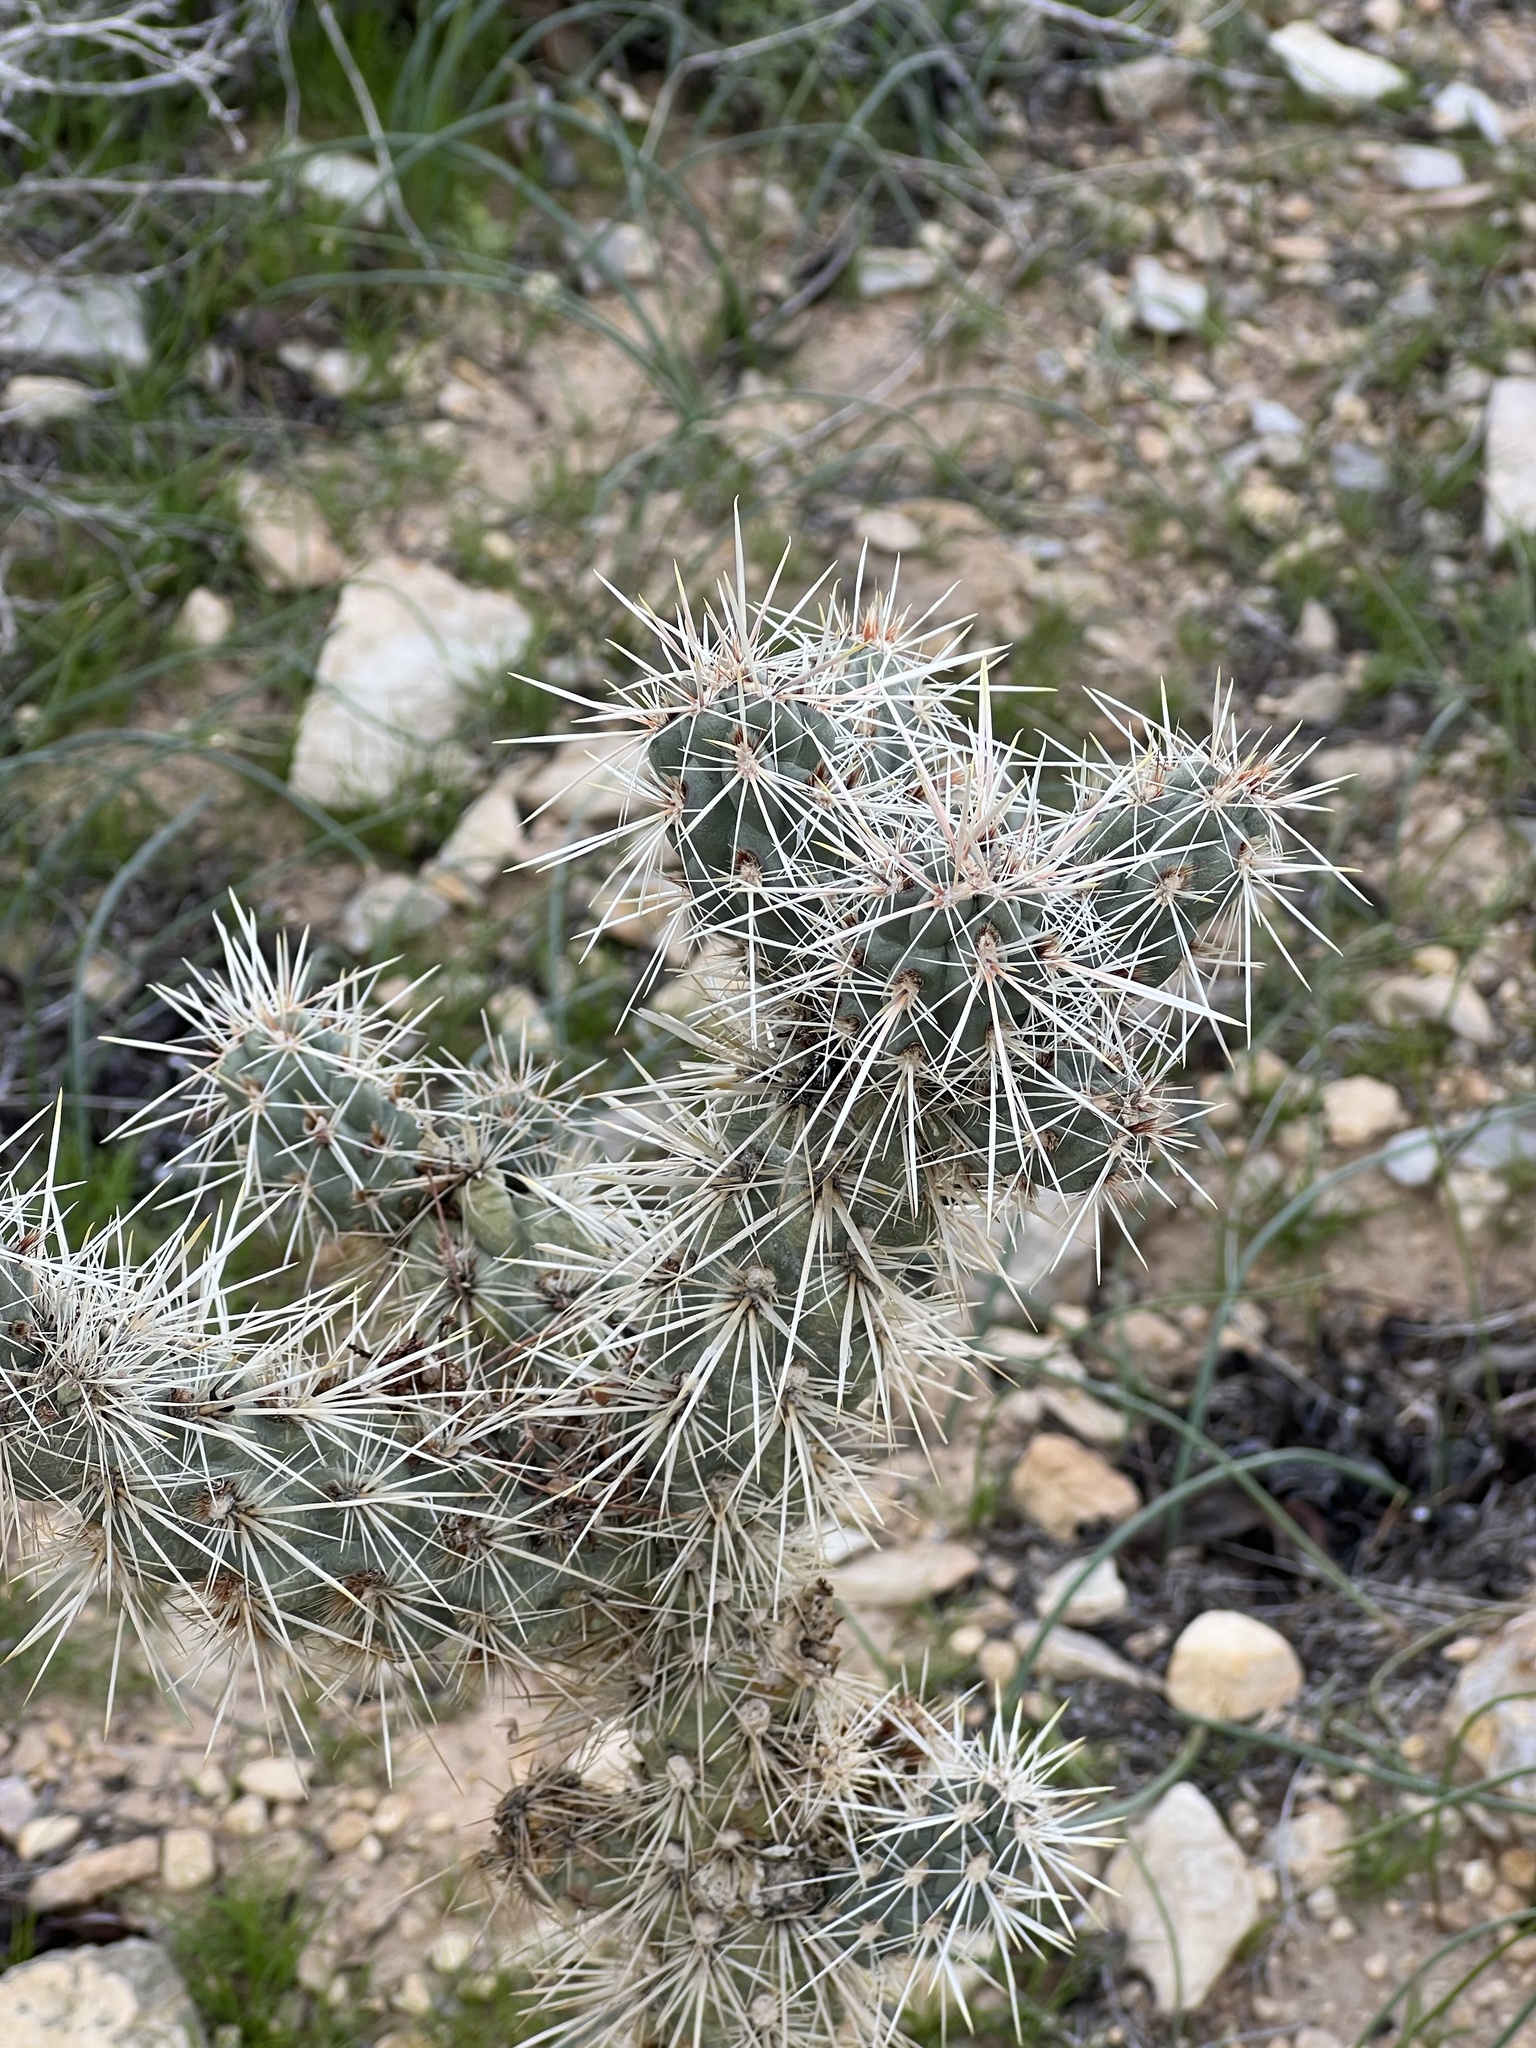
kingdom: Plantae
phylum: Tracheophyta
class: Magnoliopsida
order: Caryophyllales
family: Cactaceae
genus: Cylindropuntia
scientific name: Cylindropuntia echinocarpa
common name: Ground cholla
